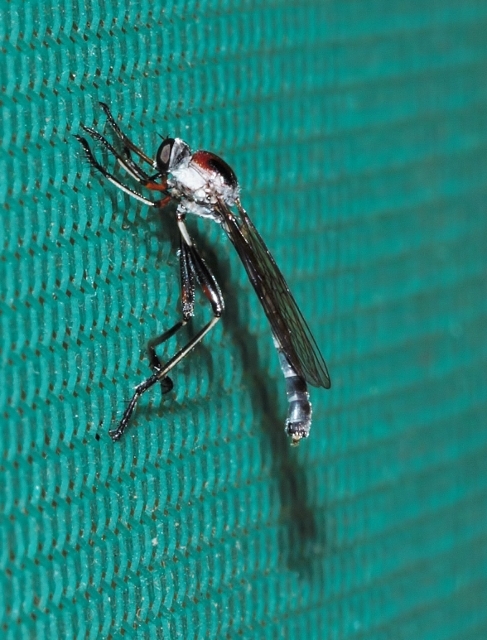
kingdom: Animalia
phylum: Arthropoda
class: Insecta
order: Diptera
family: Asilidae
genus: Euscelidia
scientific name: Euscelidia procula
